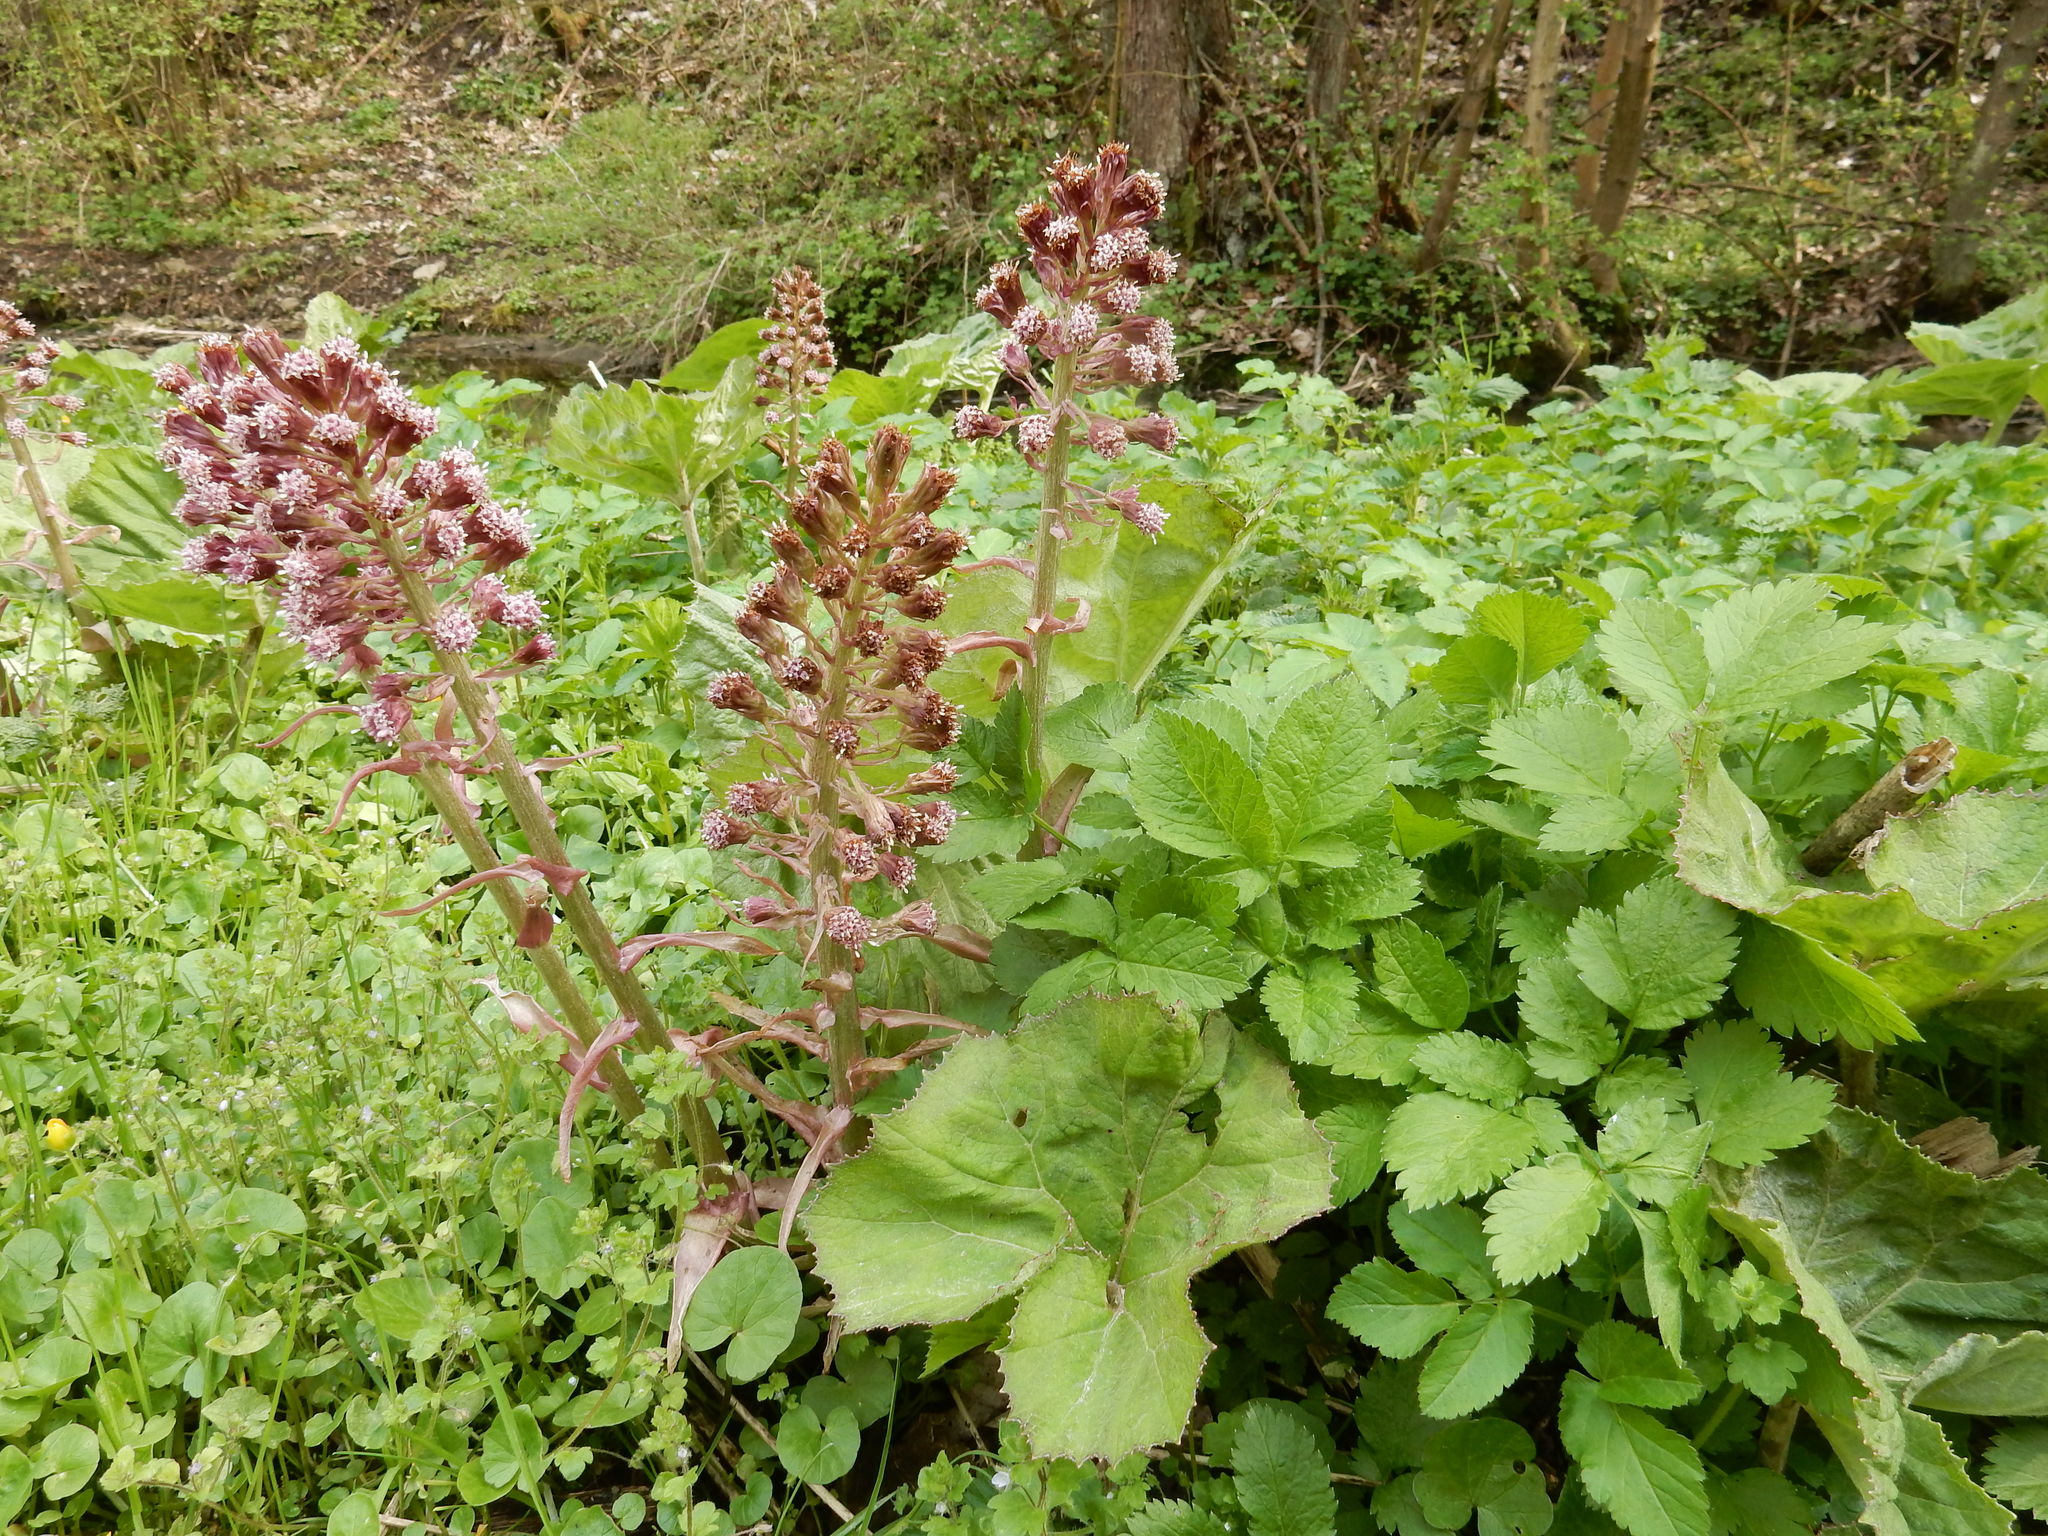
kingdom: Plantae
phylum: Tracheophyta
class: Magnoliopsida
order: Asterales
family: Asteraceae
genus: Petasites
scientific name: Petasites hybridus
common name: Butterbur
